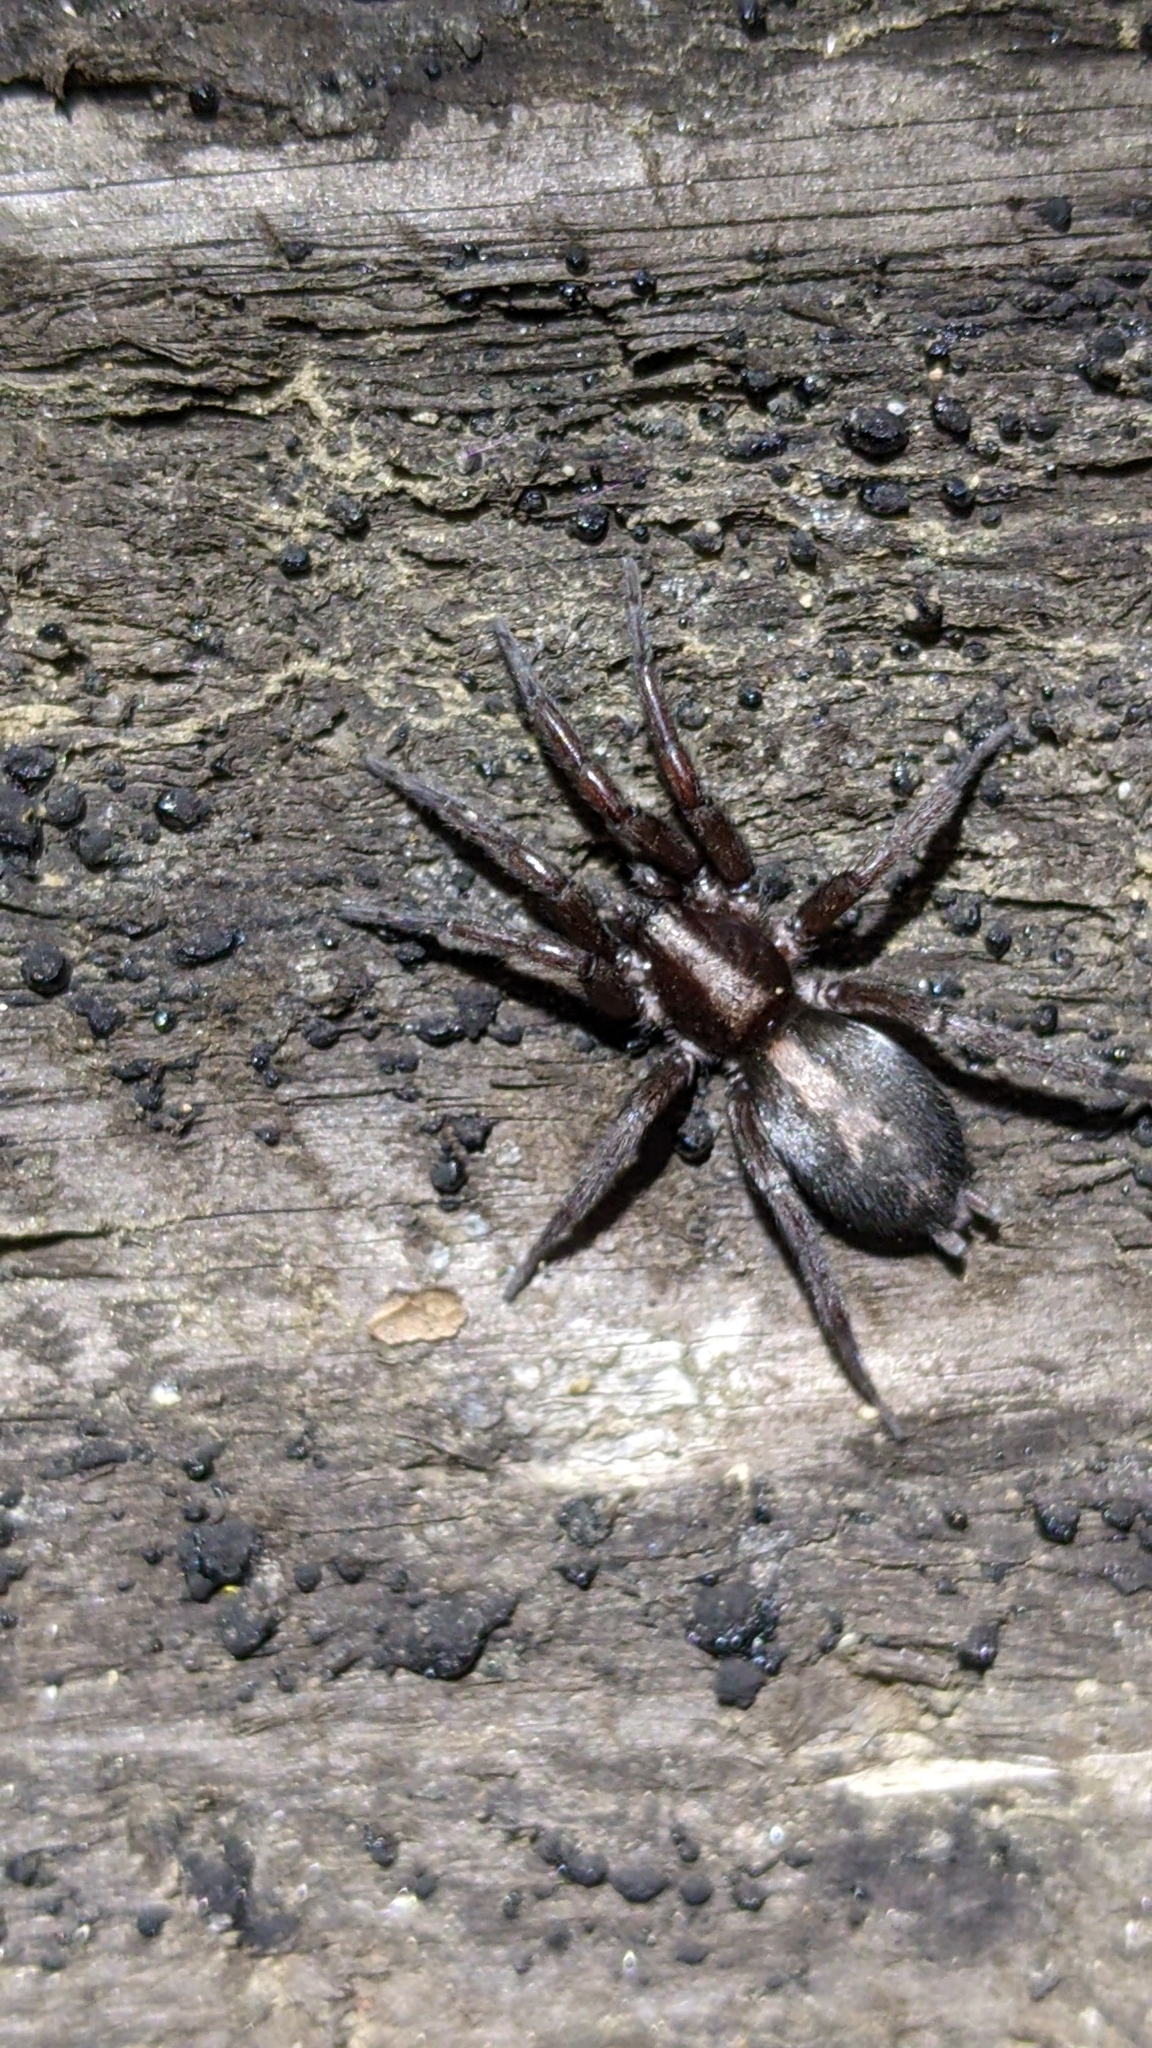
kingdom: Animalia
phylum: Arthropoda
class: Arachnida
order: Araneae
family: Gnaphosidae
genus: Herpyllus
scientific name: Herpyllus propinquus
